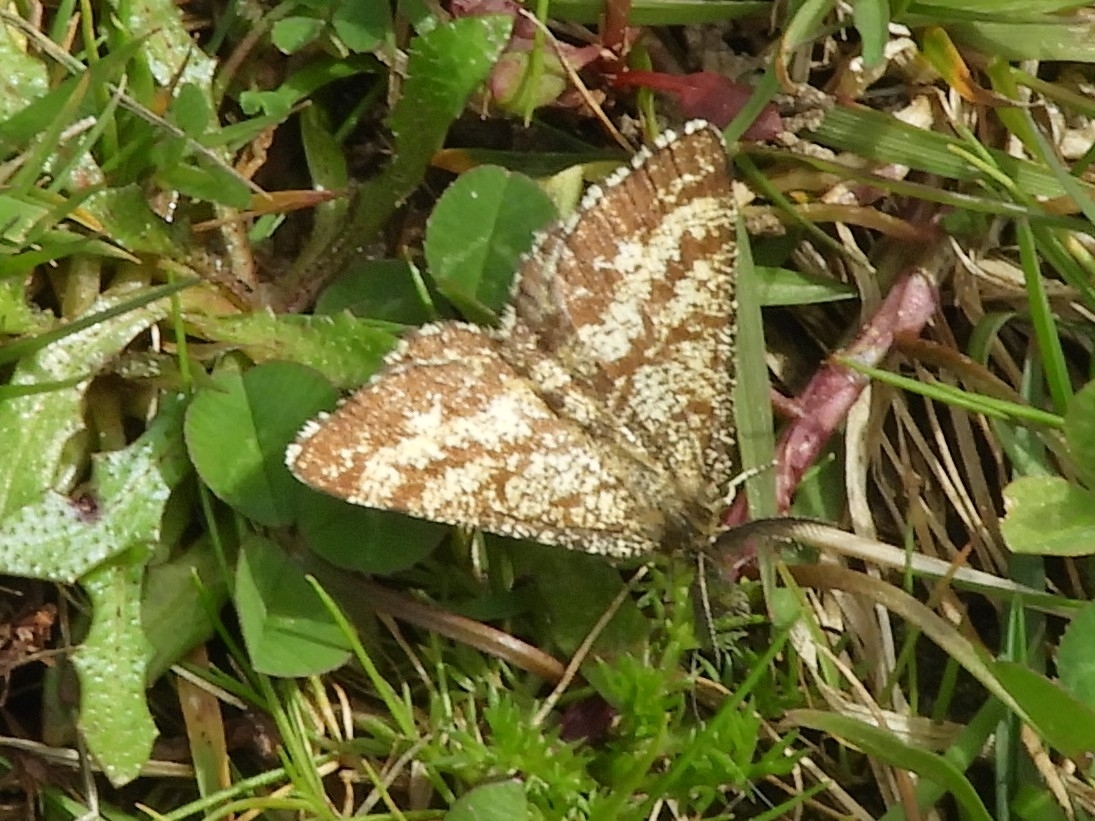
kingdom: Animalia
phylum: Arthropoda
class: Insecta
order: Lepidoptera
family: Geometridae
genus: Ematurga
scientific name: Ematurga atomaria
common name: Common heath
